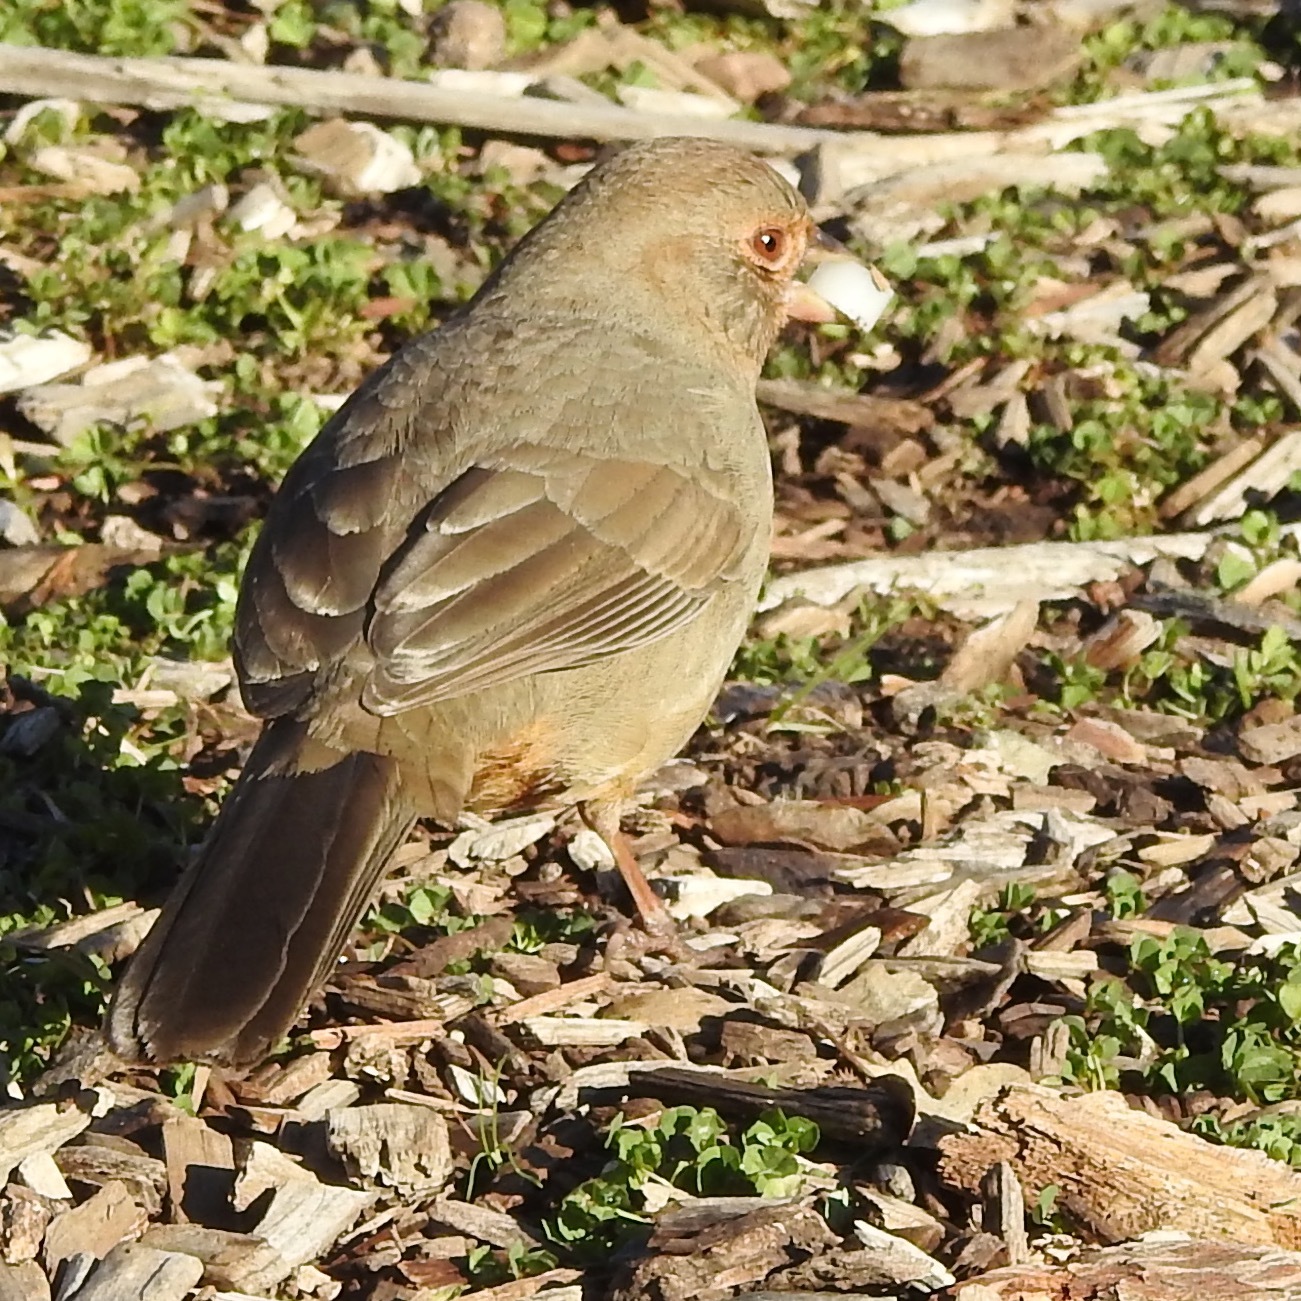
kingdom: Animalia
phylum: Chordata
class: Aves
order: Passeriformes
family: Passerellidae
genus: Melozone
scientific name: Melozone crissalis
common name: California towhee
